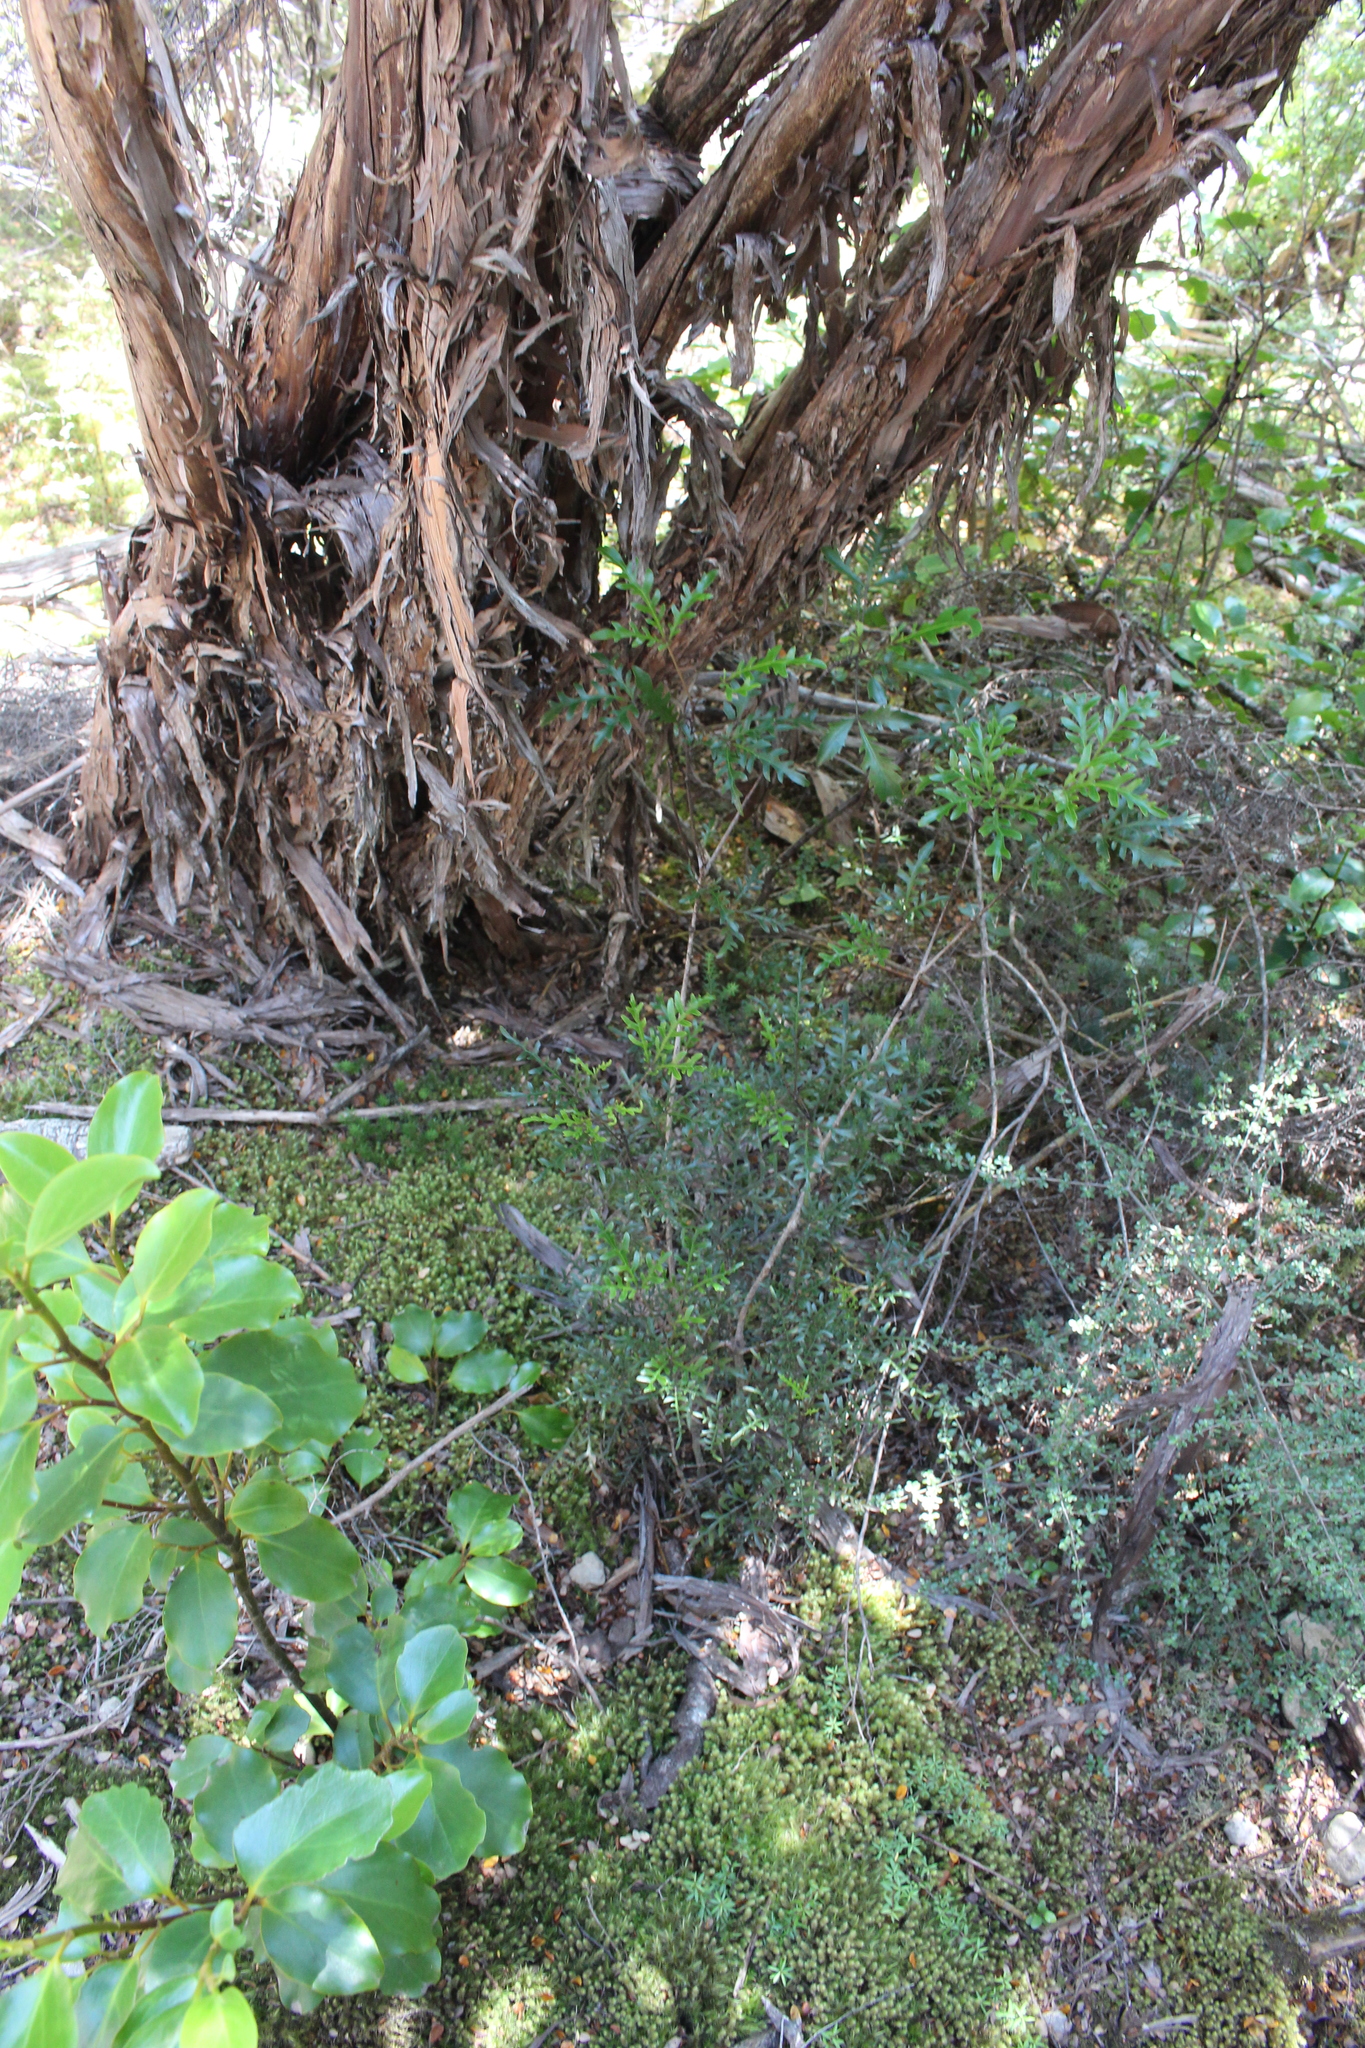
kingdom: Plantae
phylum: Tracheophyta
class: Magnoliopsida
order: Apiales
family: Araliaceae
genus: Raukaua
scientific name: Raukaua simplex
